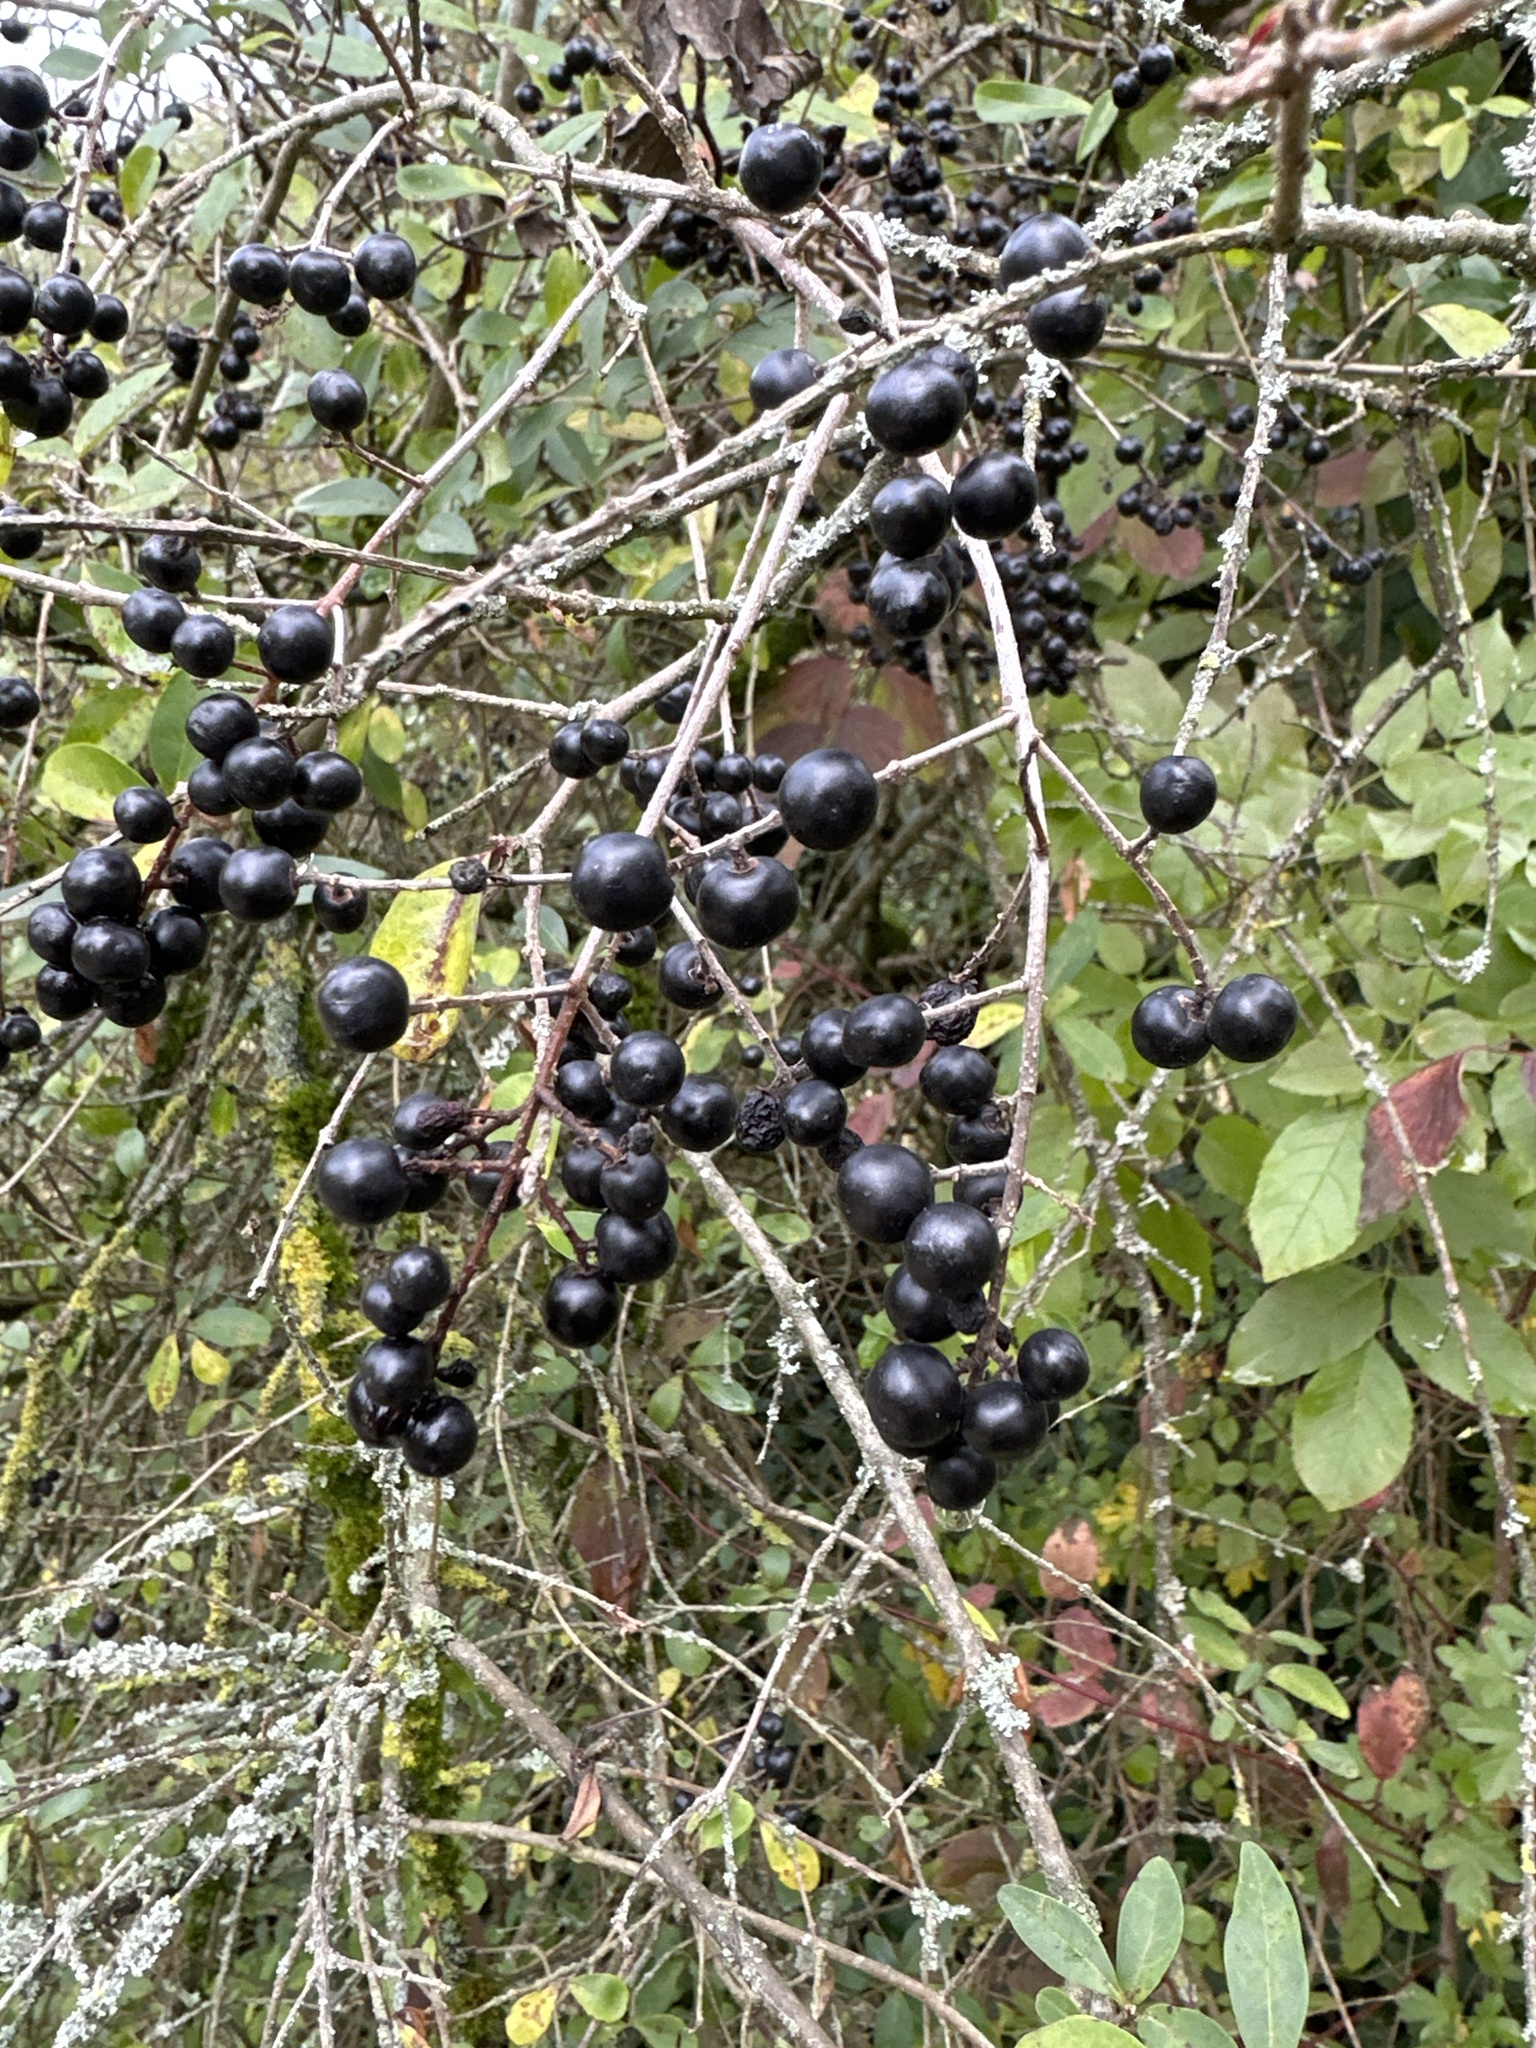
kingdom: Plantae
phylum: Tracheophyta
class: Magnoliopsida
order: Lamiales
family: Oleaceae
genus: Ligustrum
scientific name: Ligustrum vulgare
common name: Wild privet
